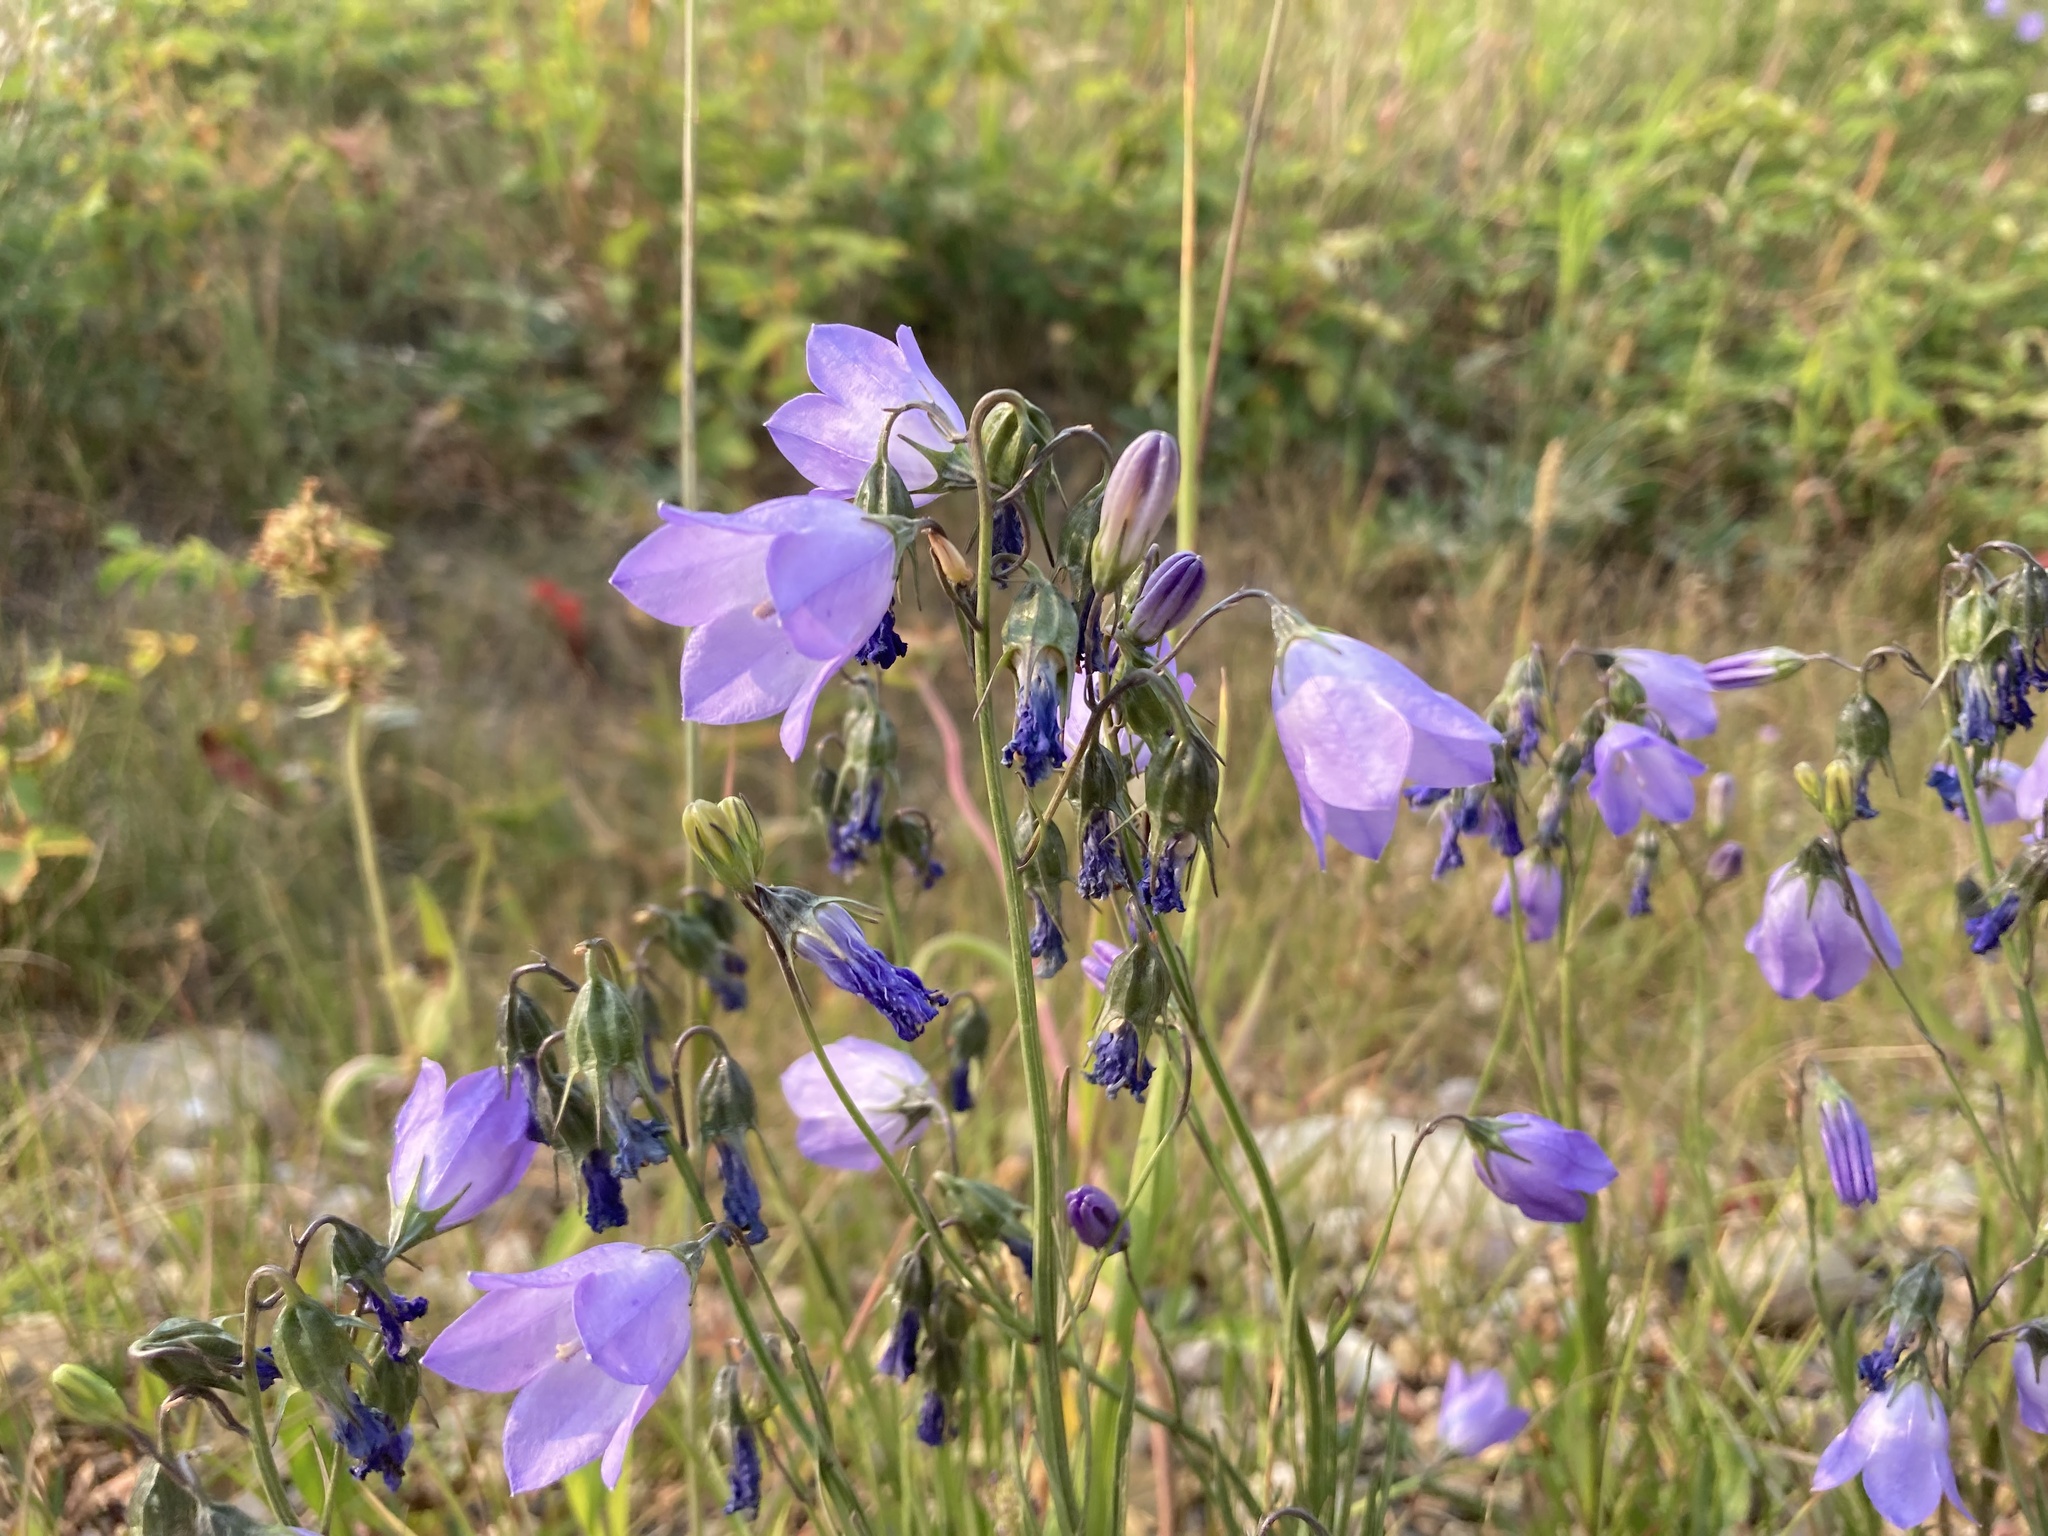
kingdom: Plantae
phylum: Tracheophyta
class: Magnoliopsida
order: Asterales
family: Campanulaceae
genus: Campanula
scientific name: Campanula alaskana
